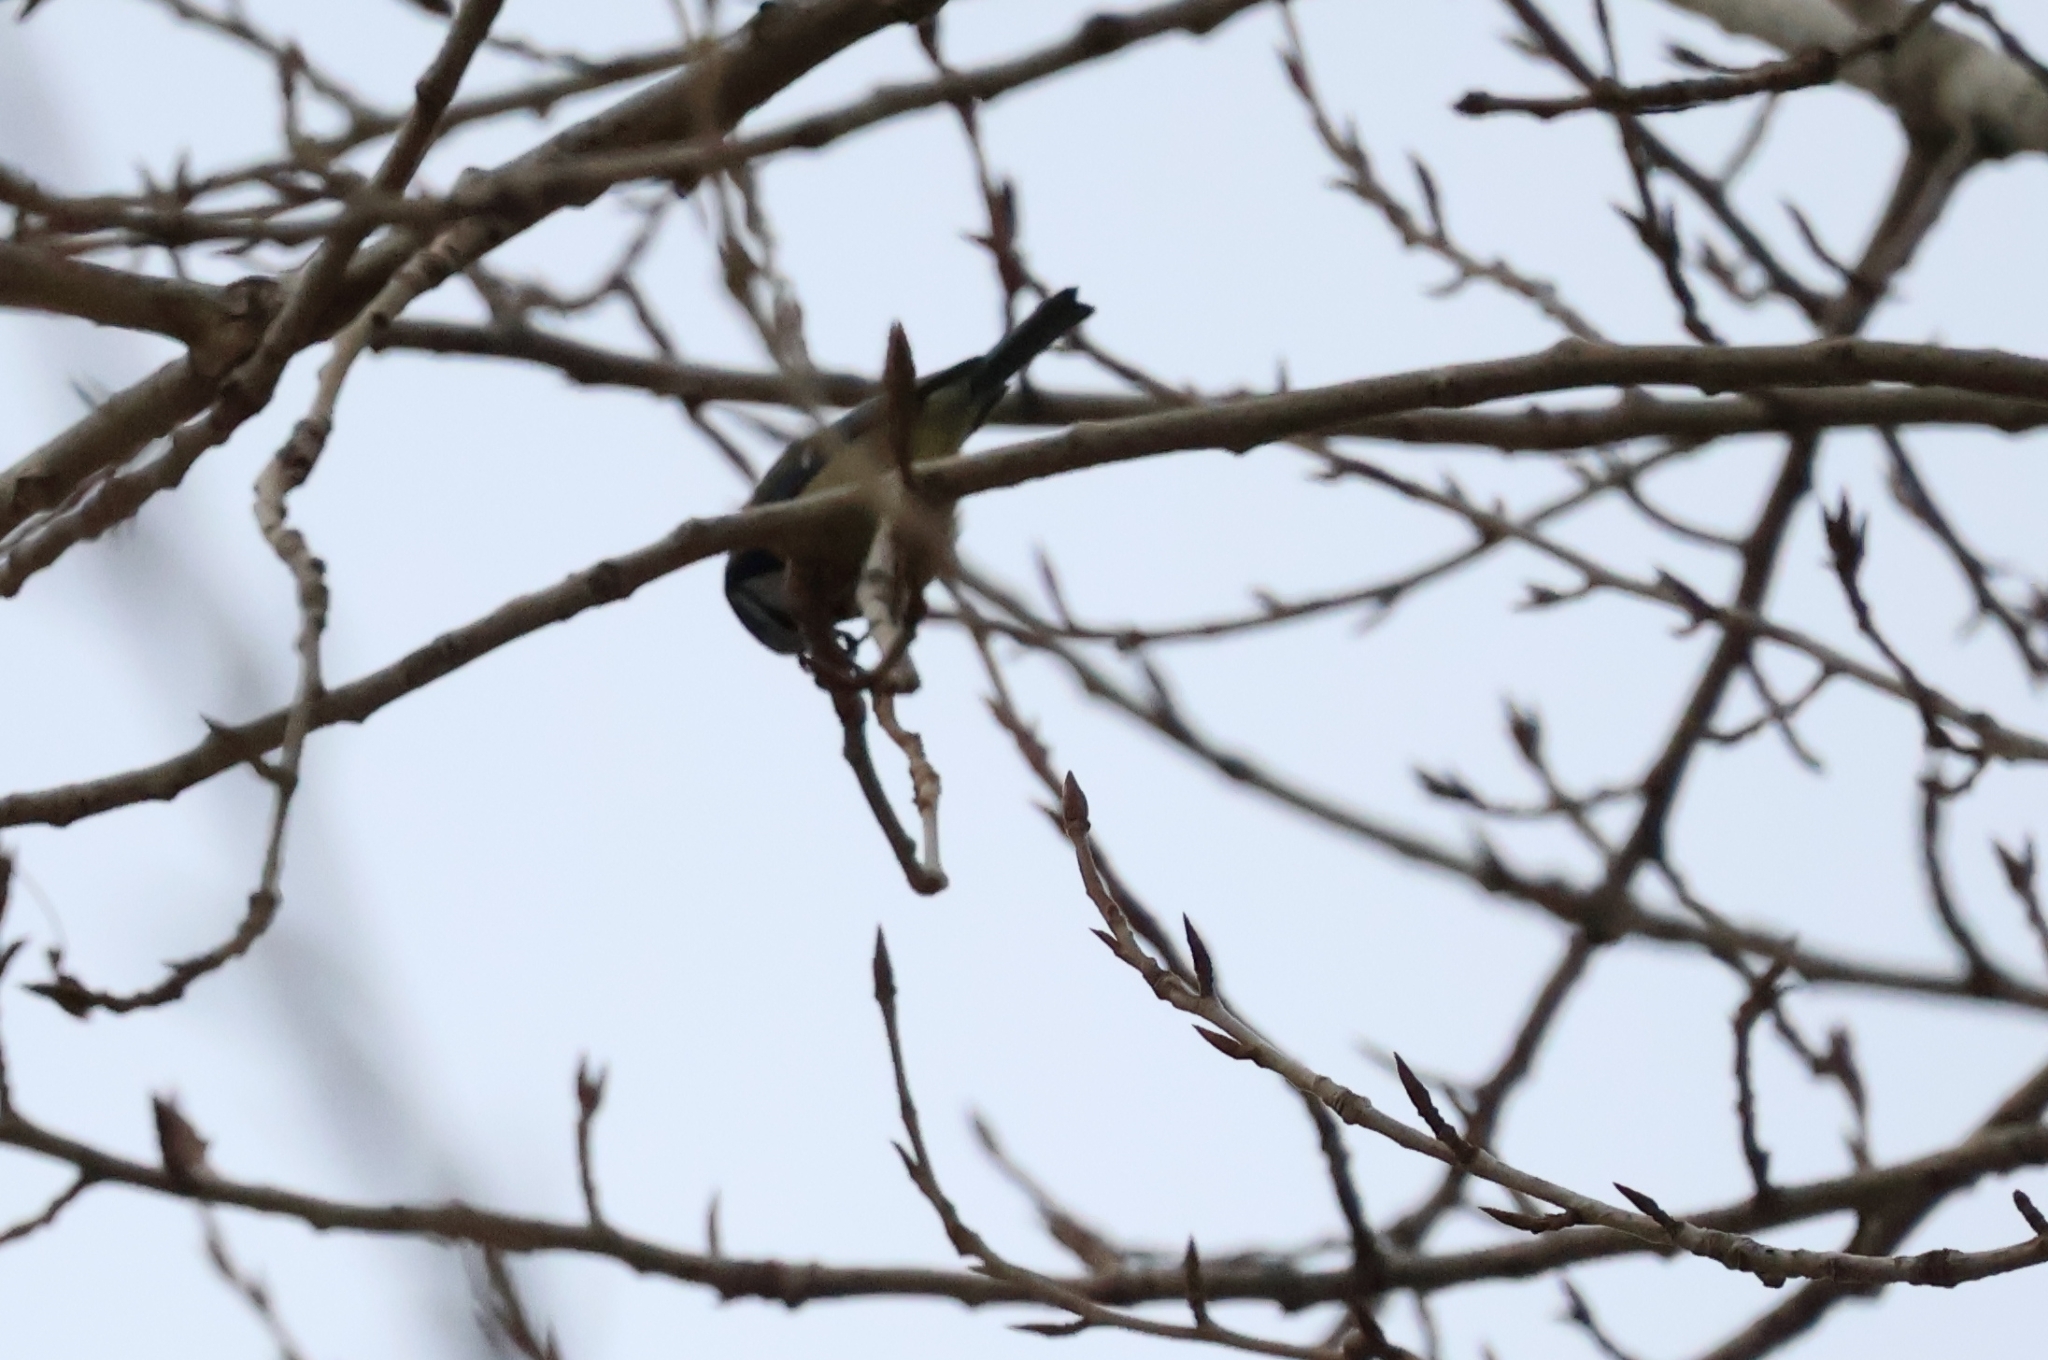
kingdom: Animalia
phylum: Chordata
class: Aves
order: Passeriformes
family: Paridae
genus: Cyanistes
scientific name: Cyanistes caeruleus
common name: Eurasian blue tit
